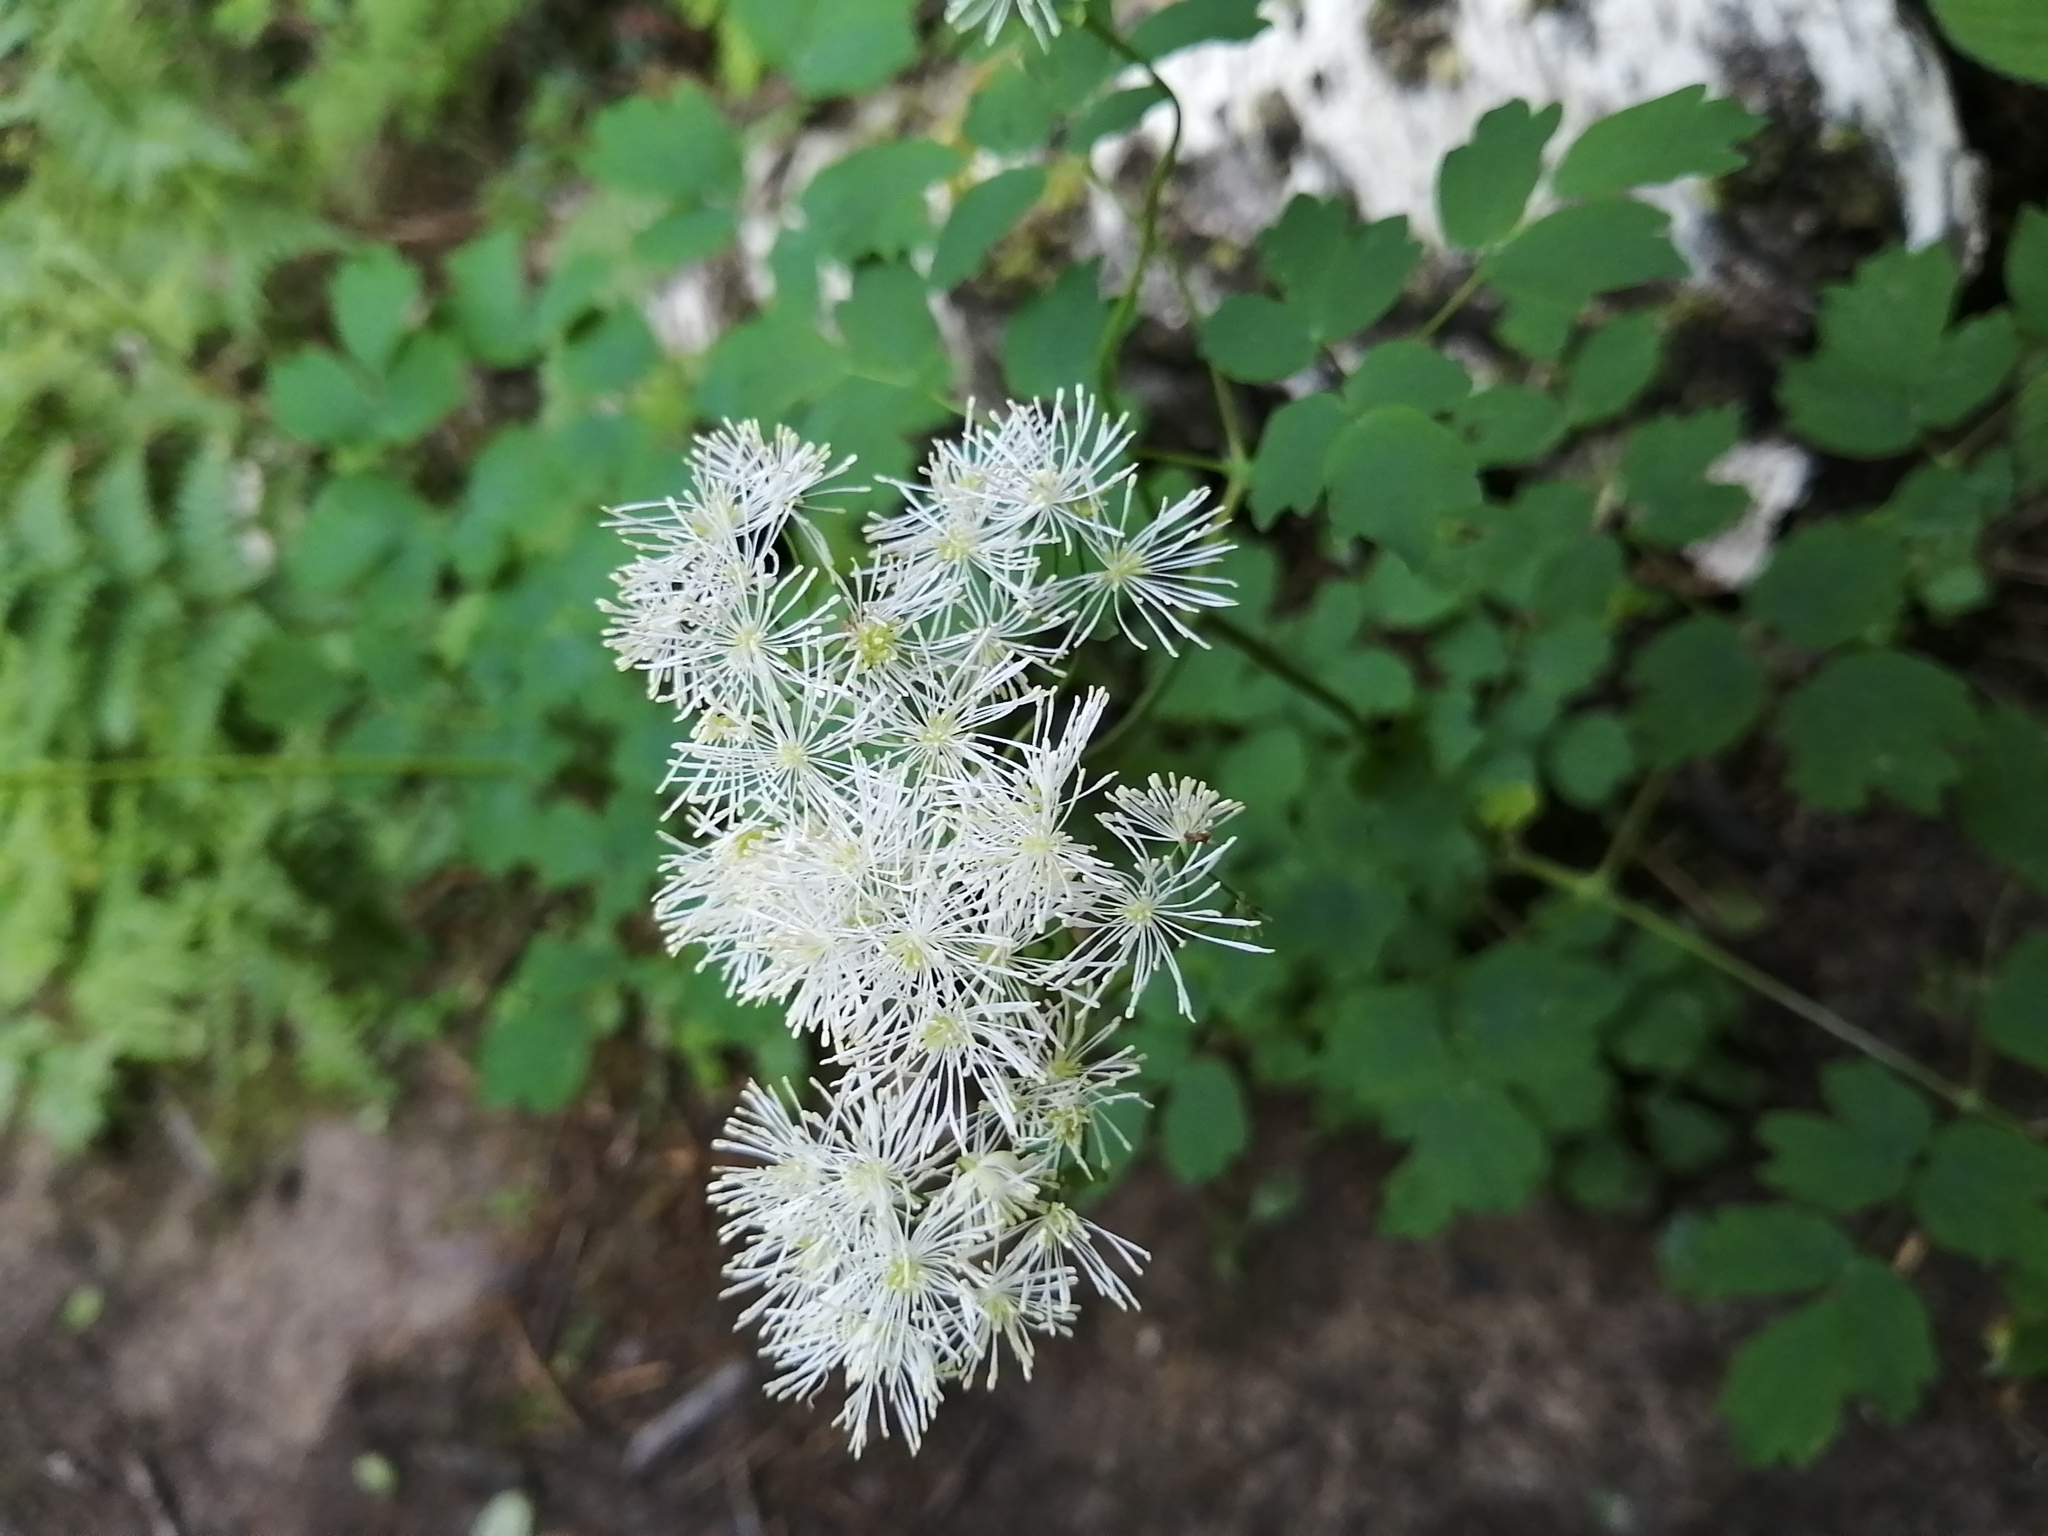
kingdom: Plantae
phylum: Tracheophyta
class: Magnoliopsida
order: Ranunculales
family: Ranunculaceae
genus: Thalictrum
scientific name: Thalictrum aquilegiifolium
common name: French meadow-rue
